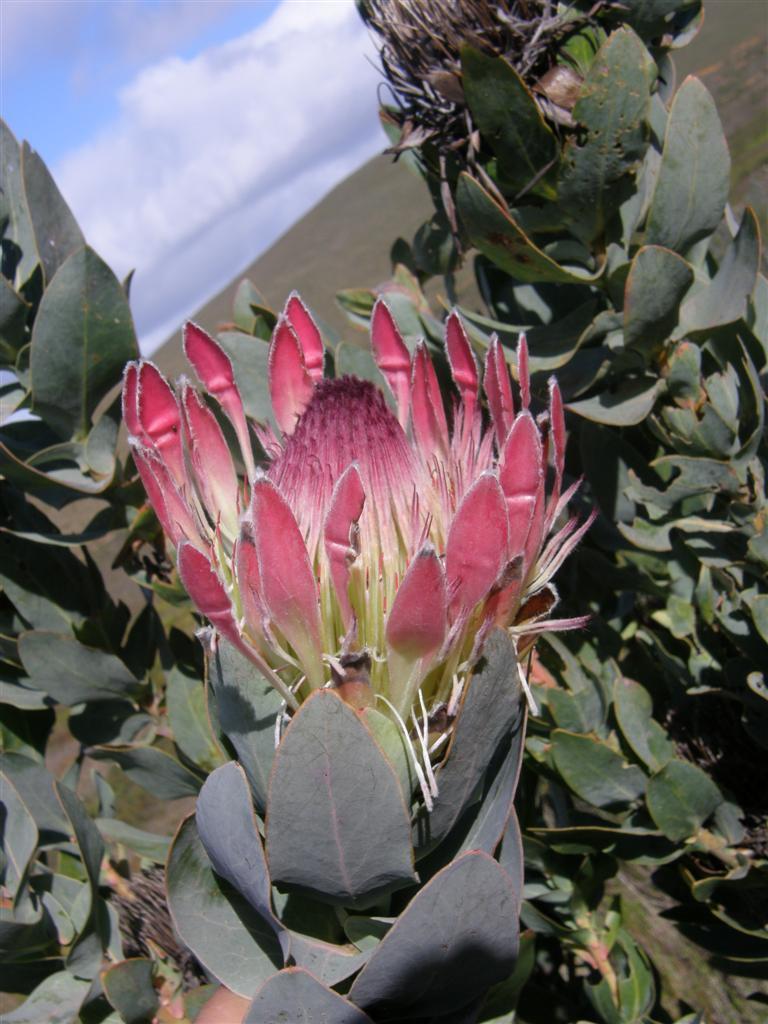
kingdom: Plantae
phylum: Tracheophyta
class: Magnoliopsida
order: Proteales
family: Proteaceae
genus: Protea
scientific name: Protea eximia
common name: Broad-leaved sugarbush
